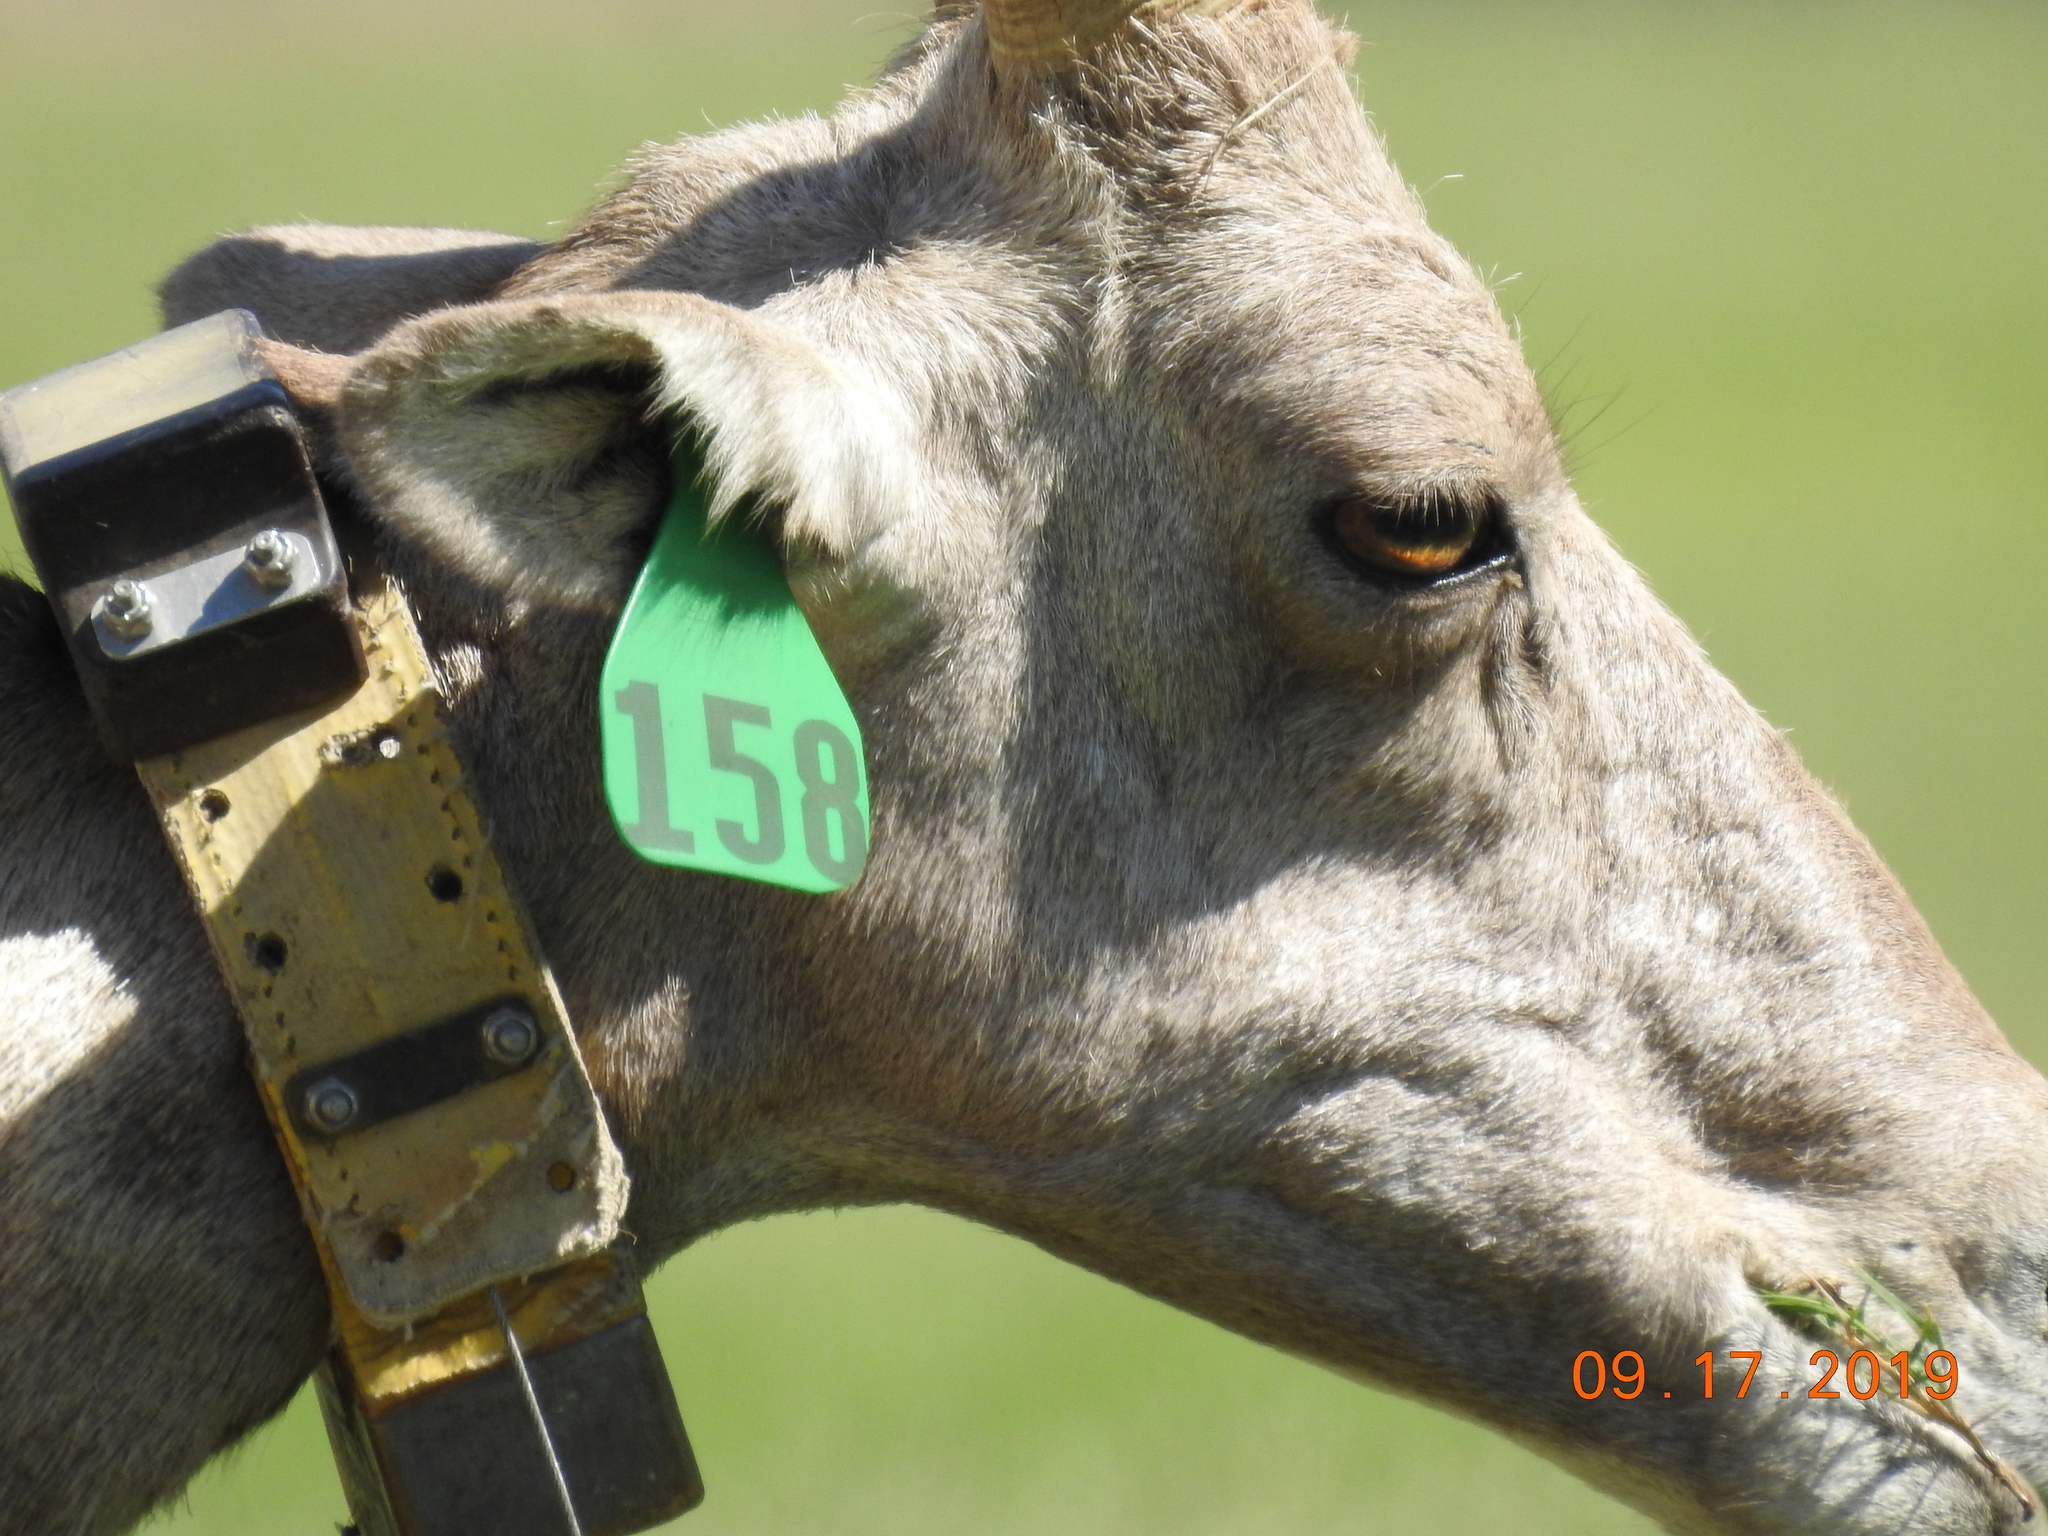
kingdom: Animalia
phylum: Chordata
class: Mammalia
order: Artiodactyla
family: Bovidae
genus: Ovis
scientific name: Ovis canadensis
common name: Bighorn sheep
